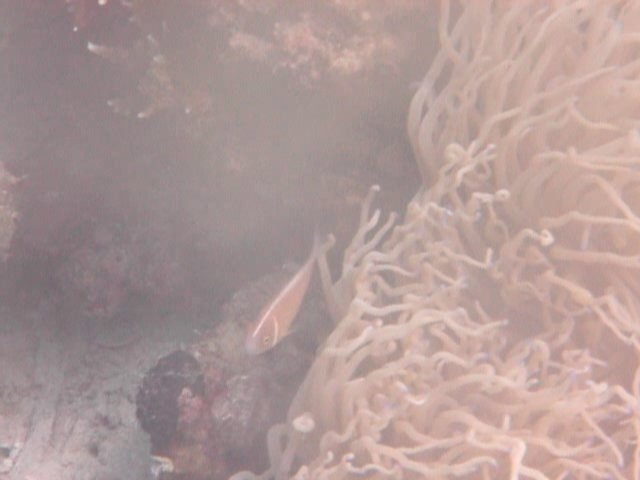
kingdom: Animalia
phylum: Chordata
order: Perciformes
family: Pomacentridae
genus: Amphiprion
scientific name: Amphiprion perideraion
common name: Pink anemonefish
